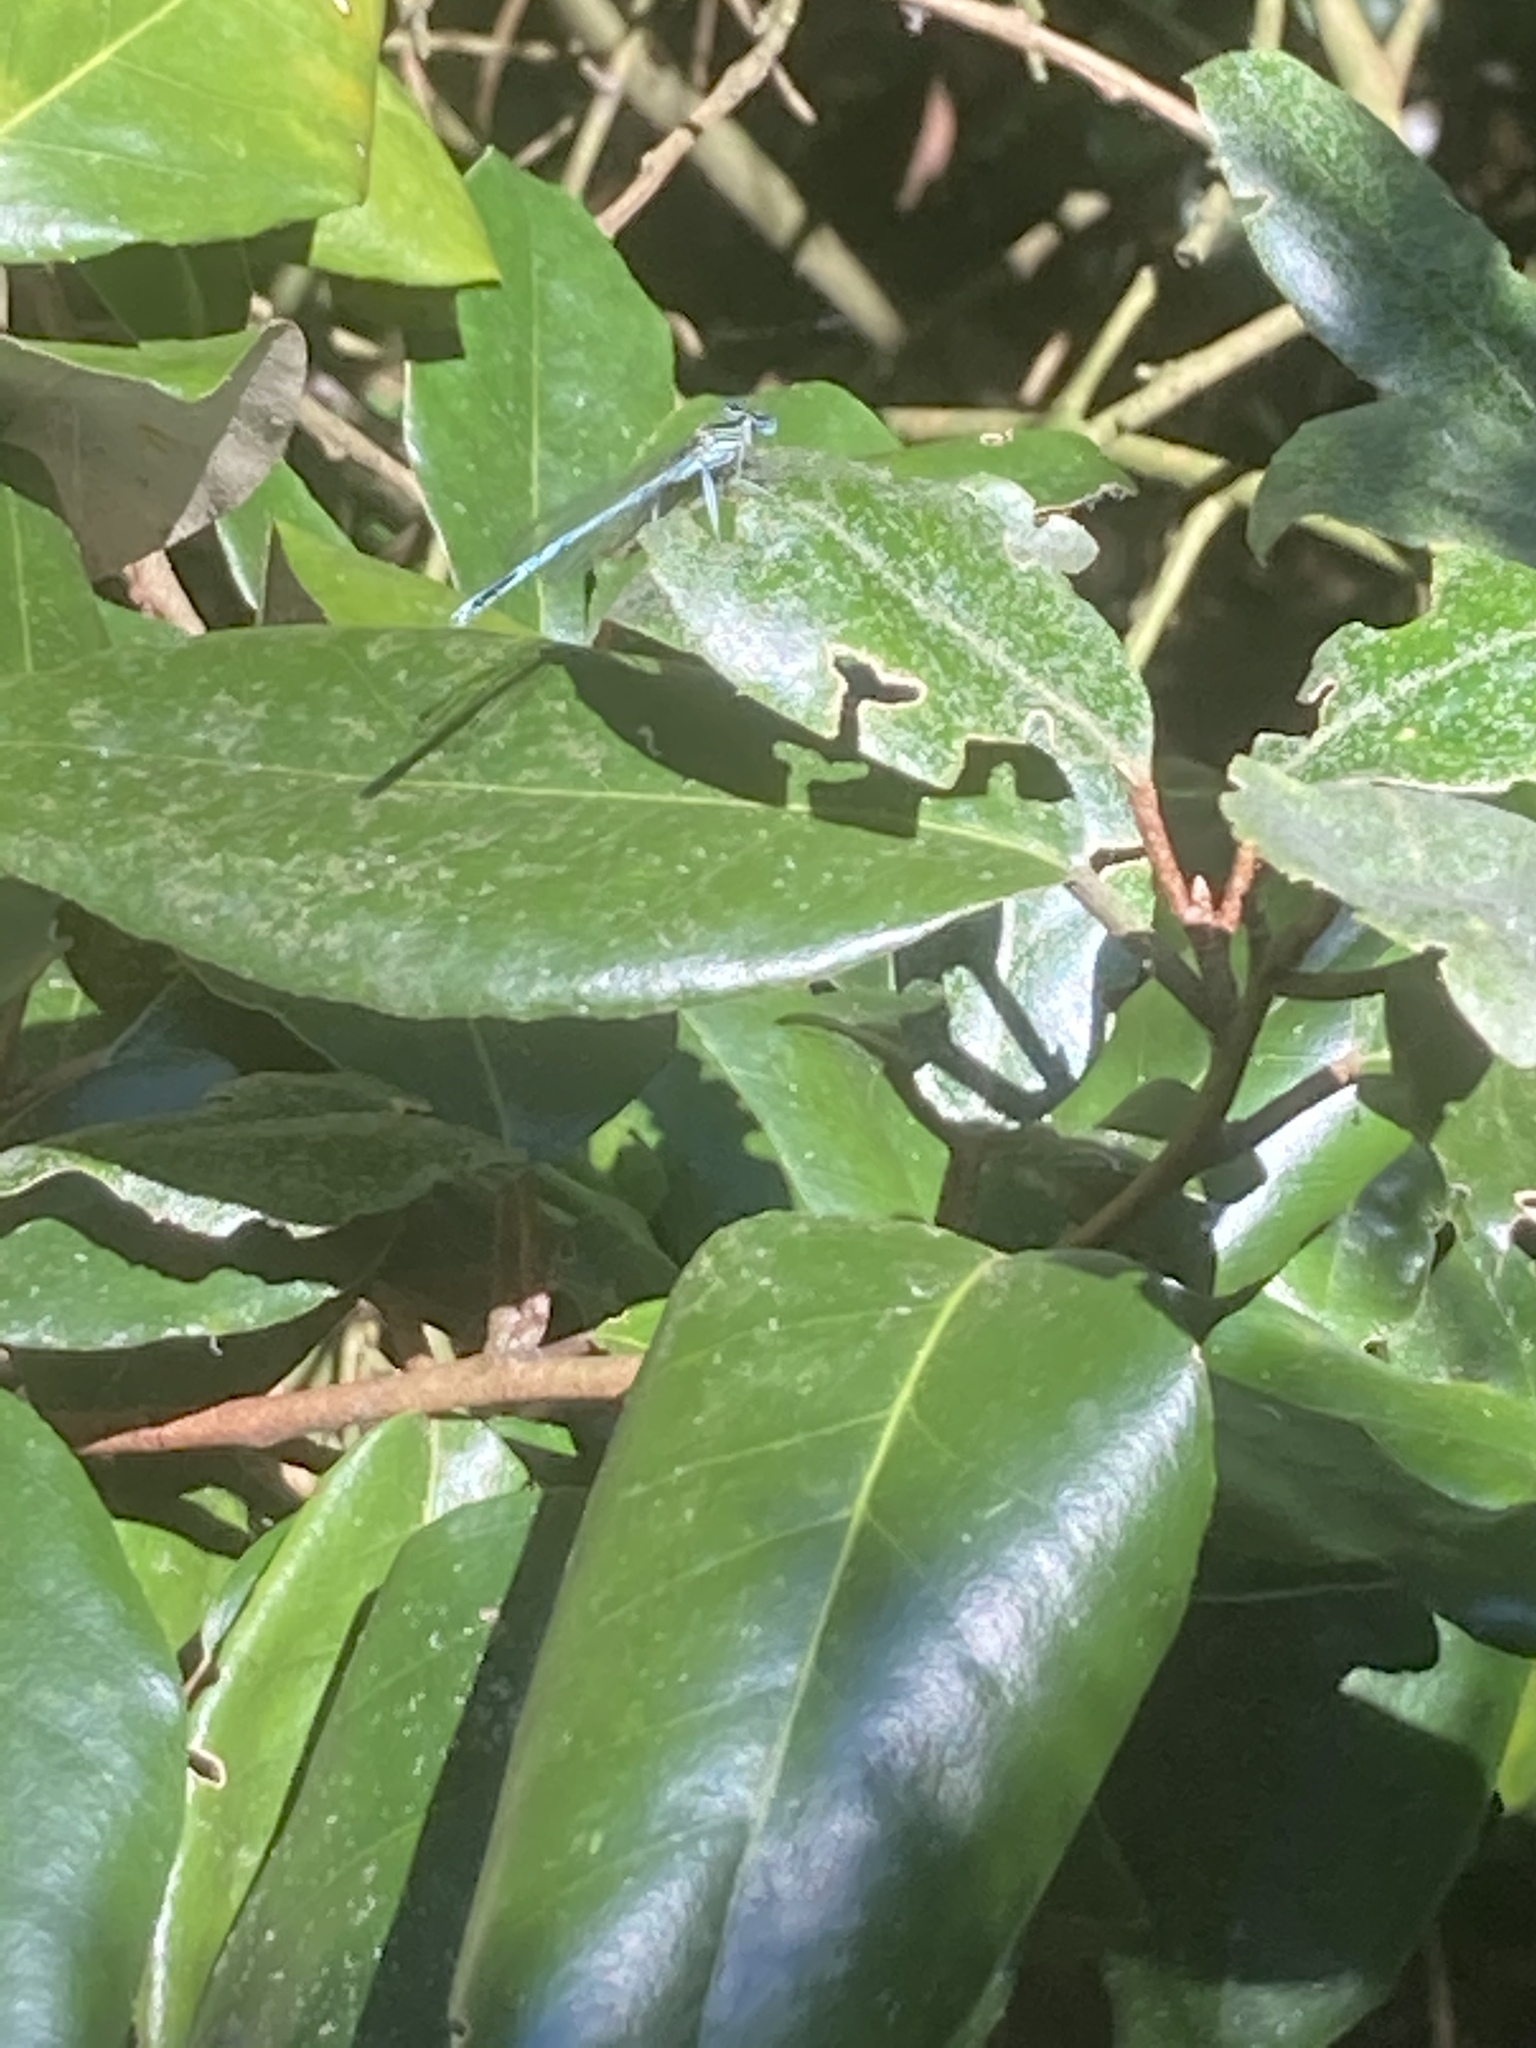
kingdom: Animalia
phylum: Arthropoda
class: Insecta
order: Odonata
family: Platycnemididae
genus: Platycnemis
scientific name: Platycnemis pennipes
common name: White-legged damselfly
